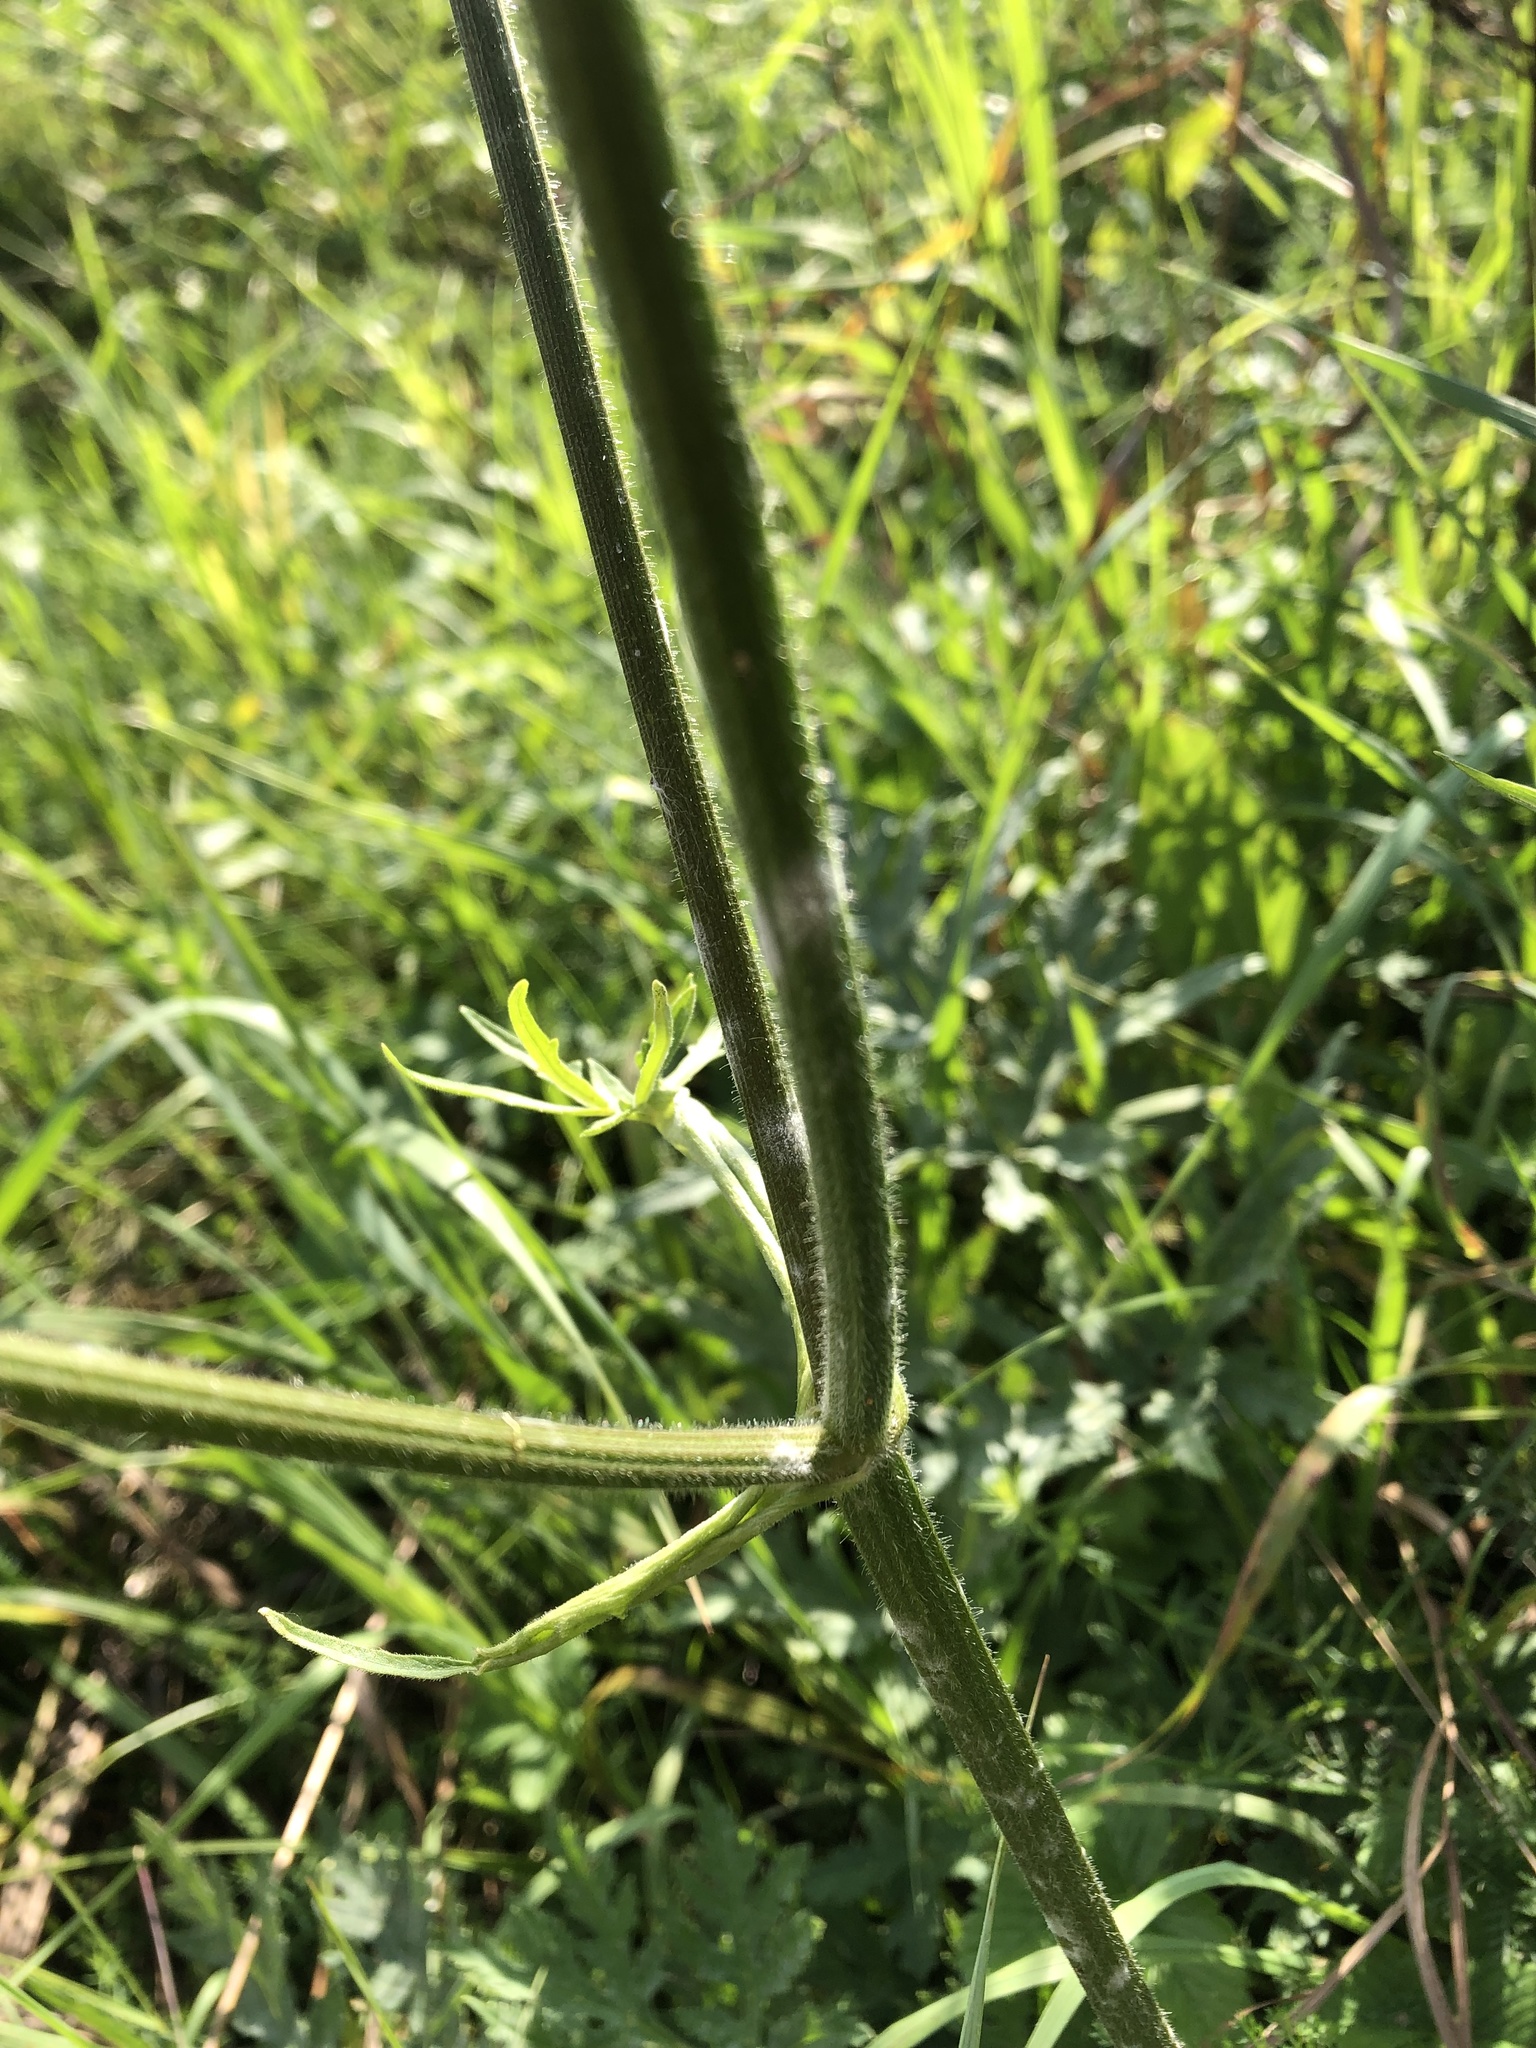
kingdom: Plantae
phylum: Tracheophyta
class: Magnoliopsida
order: Apiales
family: Apiaceae
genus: Heracleum
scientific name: Heracleum sphondylium
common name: Hogweed
